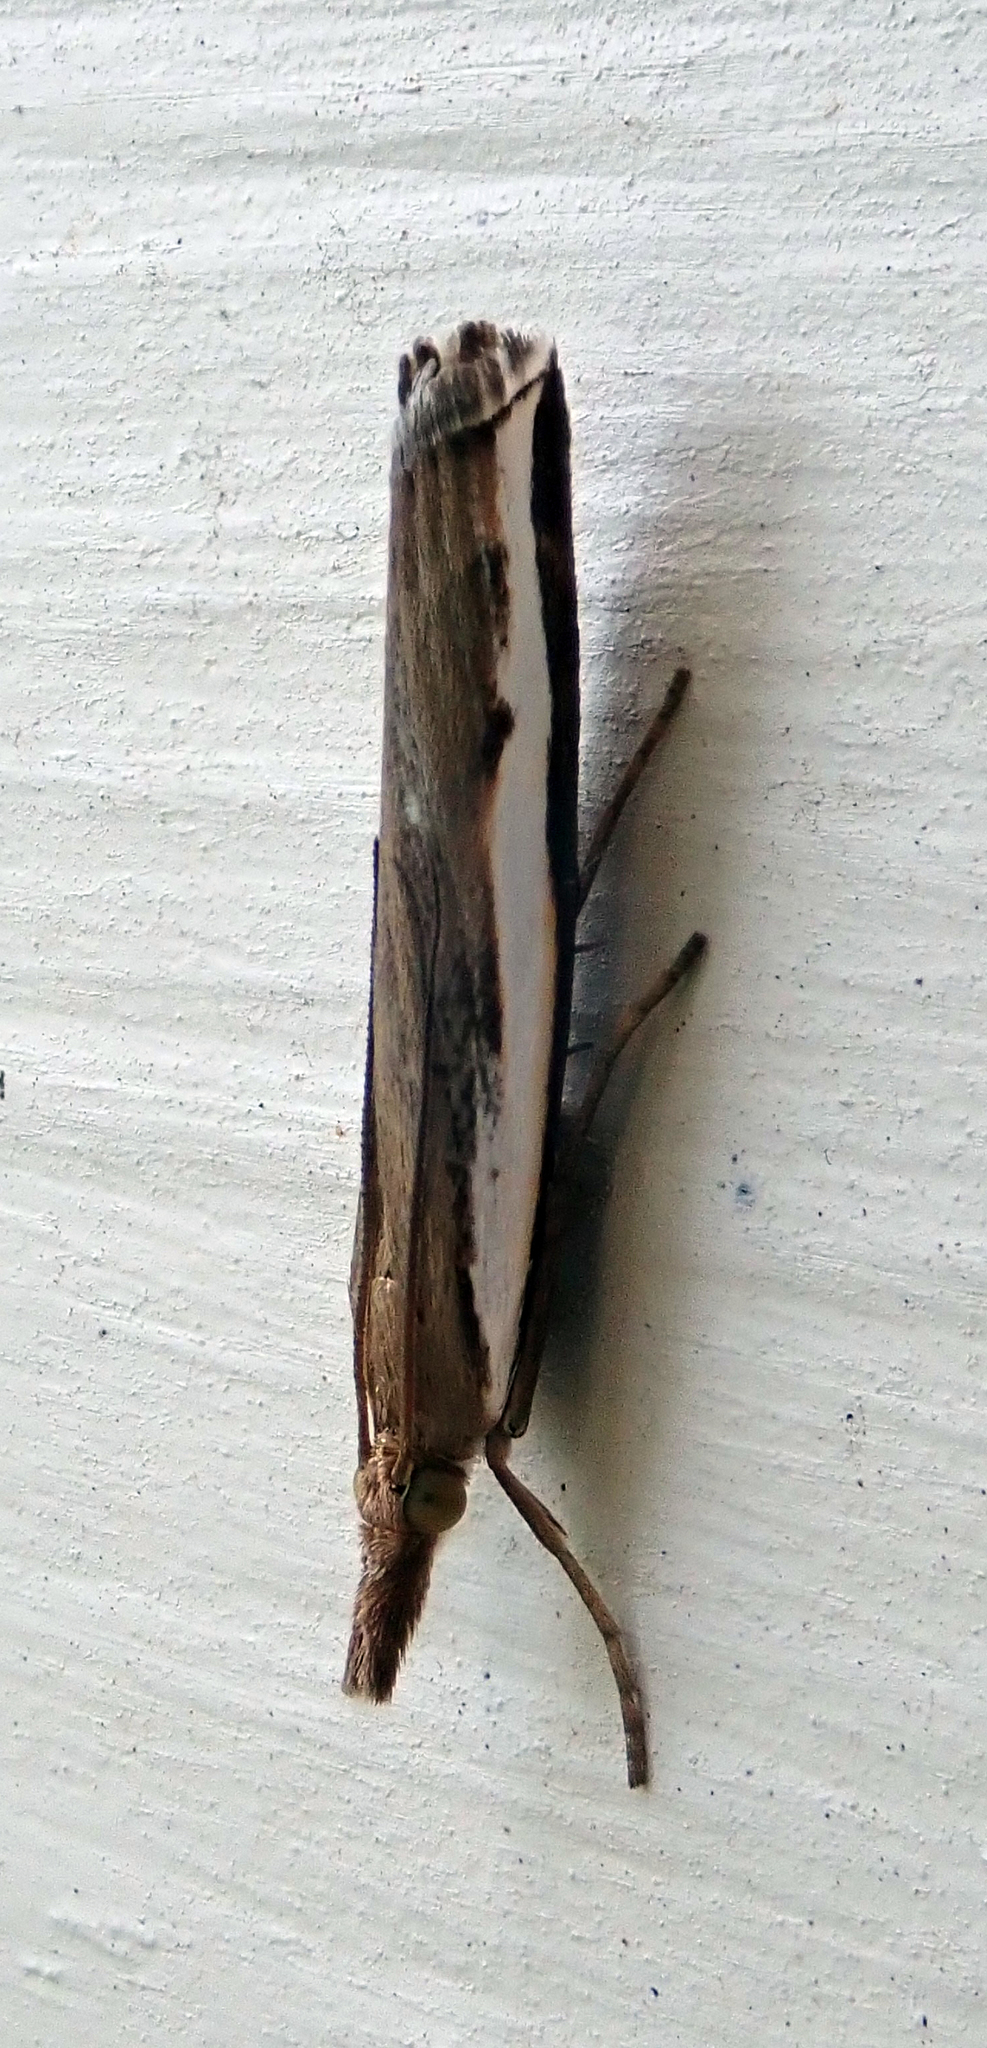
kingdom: Animalia
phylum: Arthropoda
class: Insecta
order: Lepidoptera
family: Crambidae
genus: Orocrambus
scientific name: Orocrambus flexuosellus
